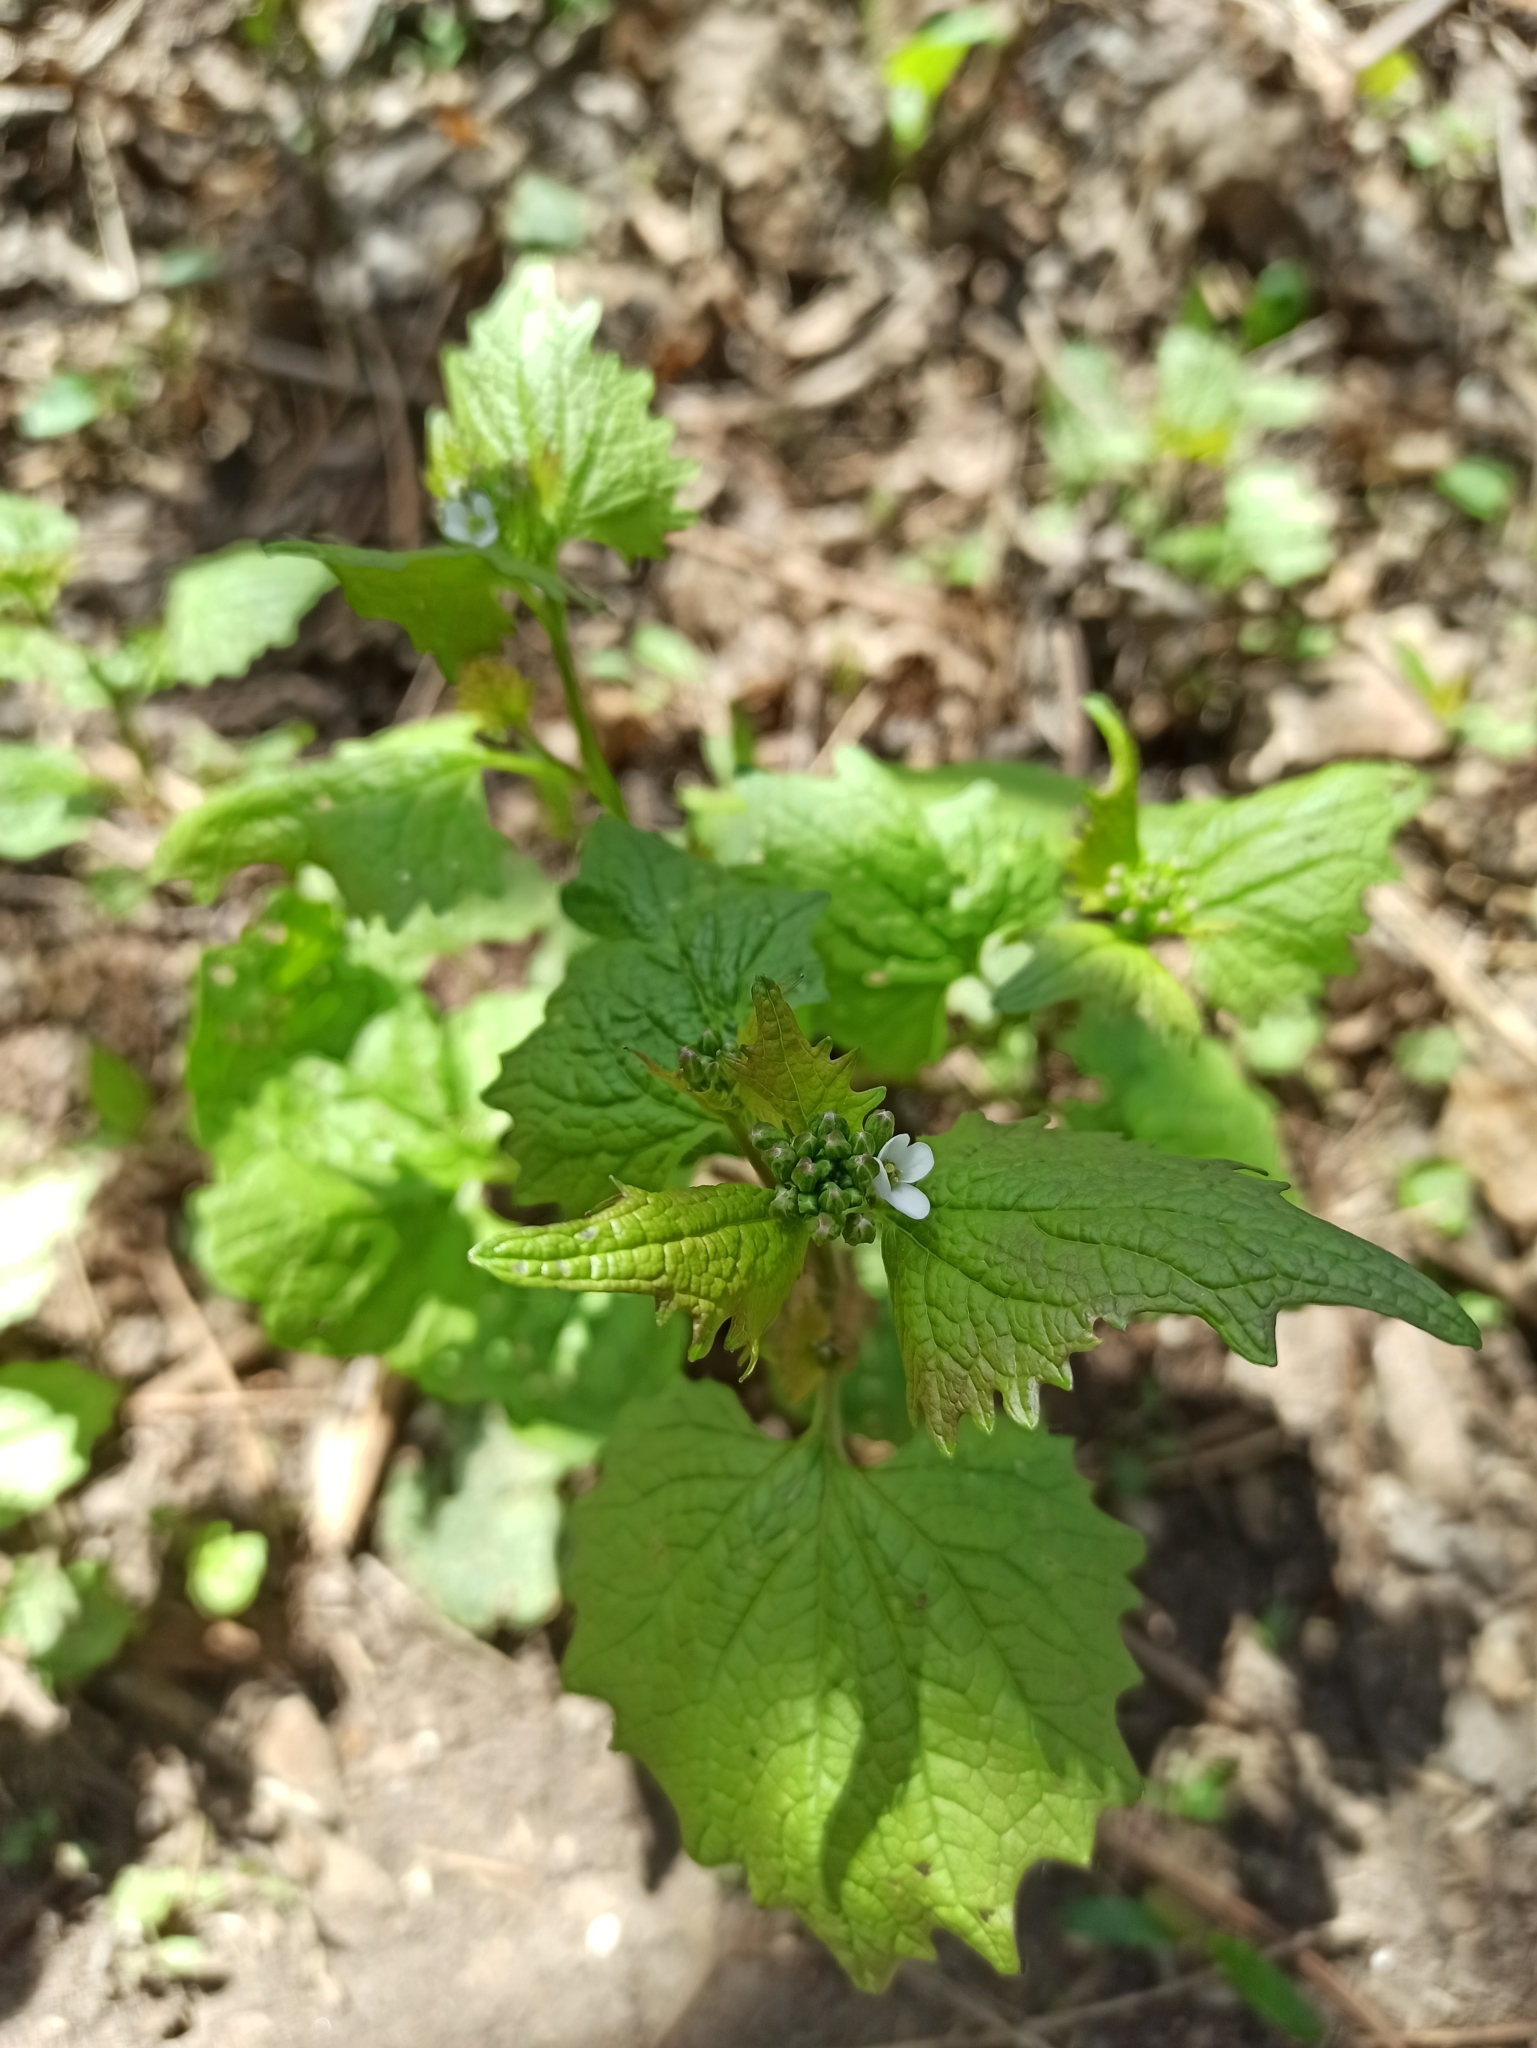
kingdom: Plantae
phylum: Tracheophyta
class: Magnoliopsida
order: Brassicales
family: Brassicaceae
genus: Alliaria
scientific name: Alliaria petiolata
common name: Garlic mustard
